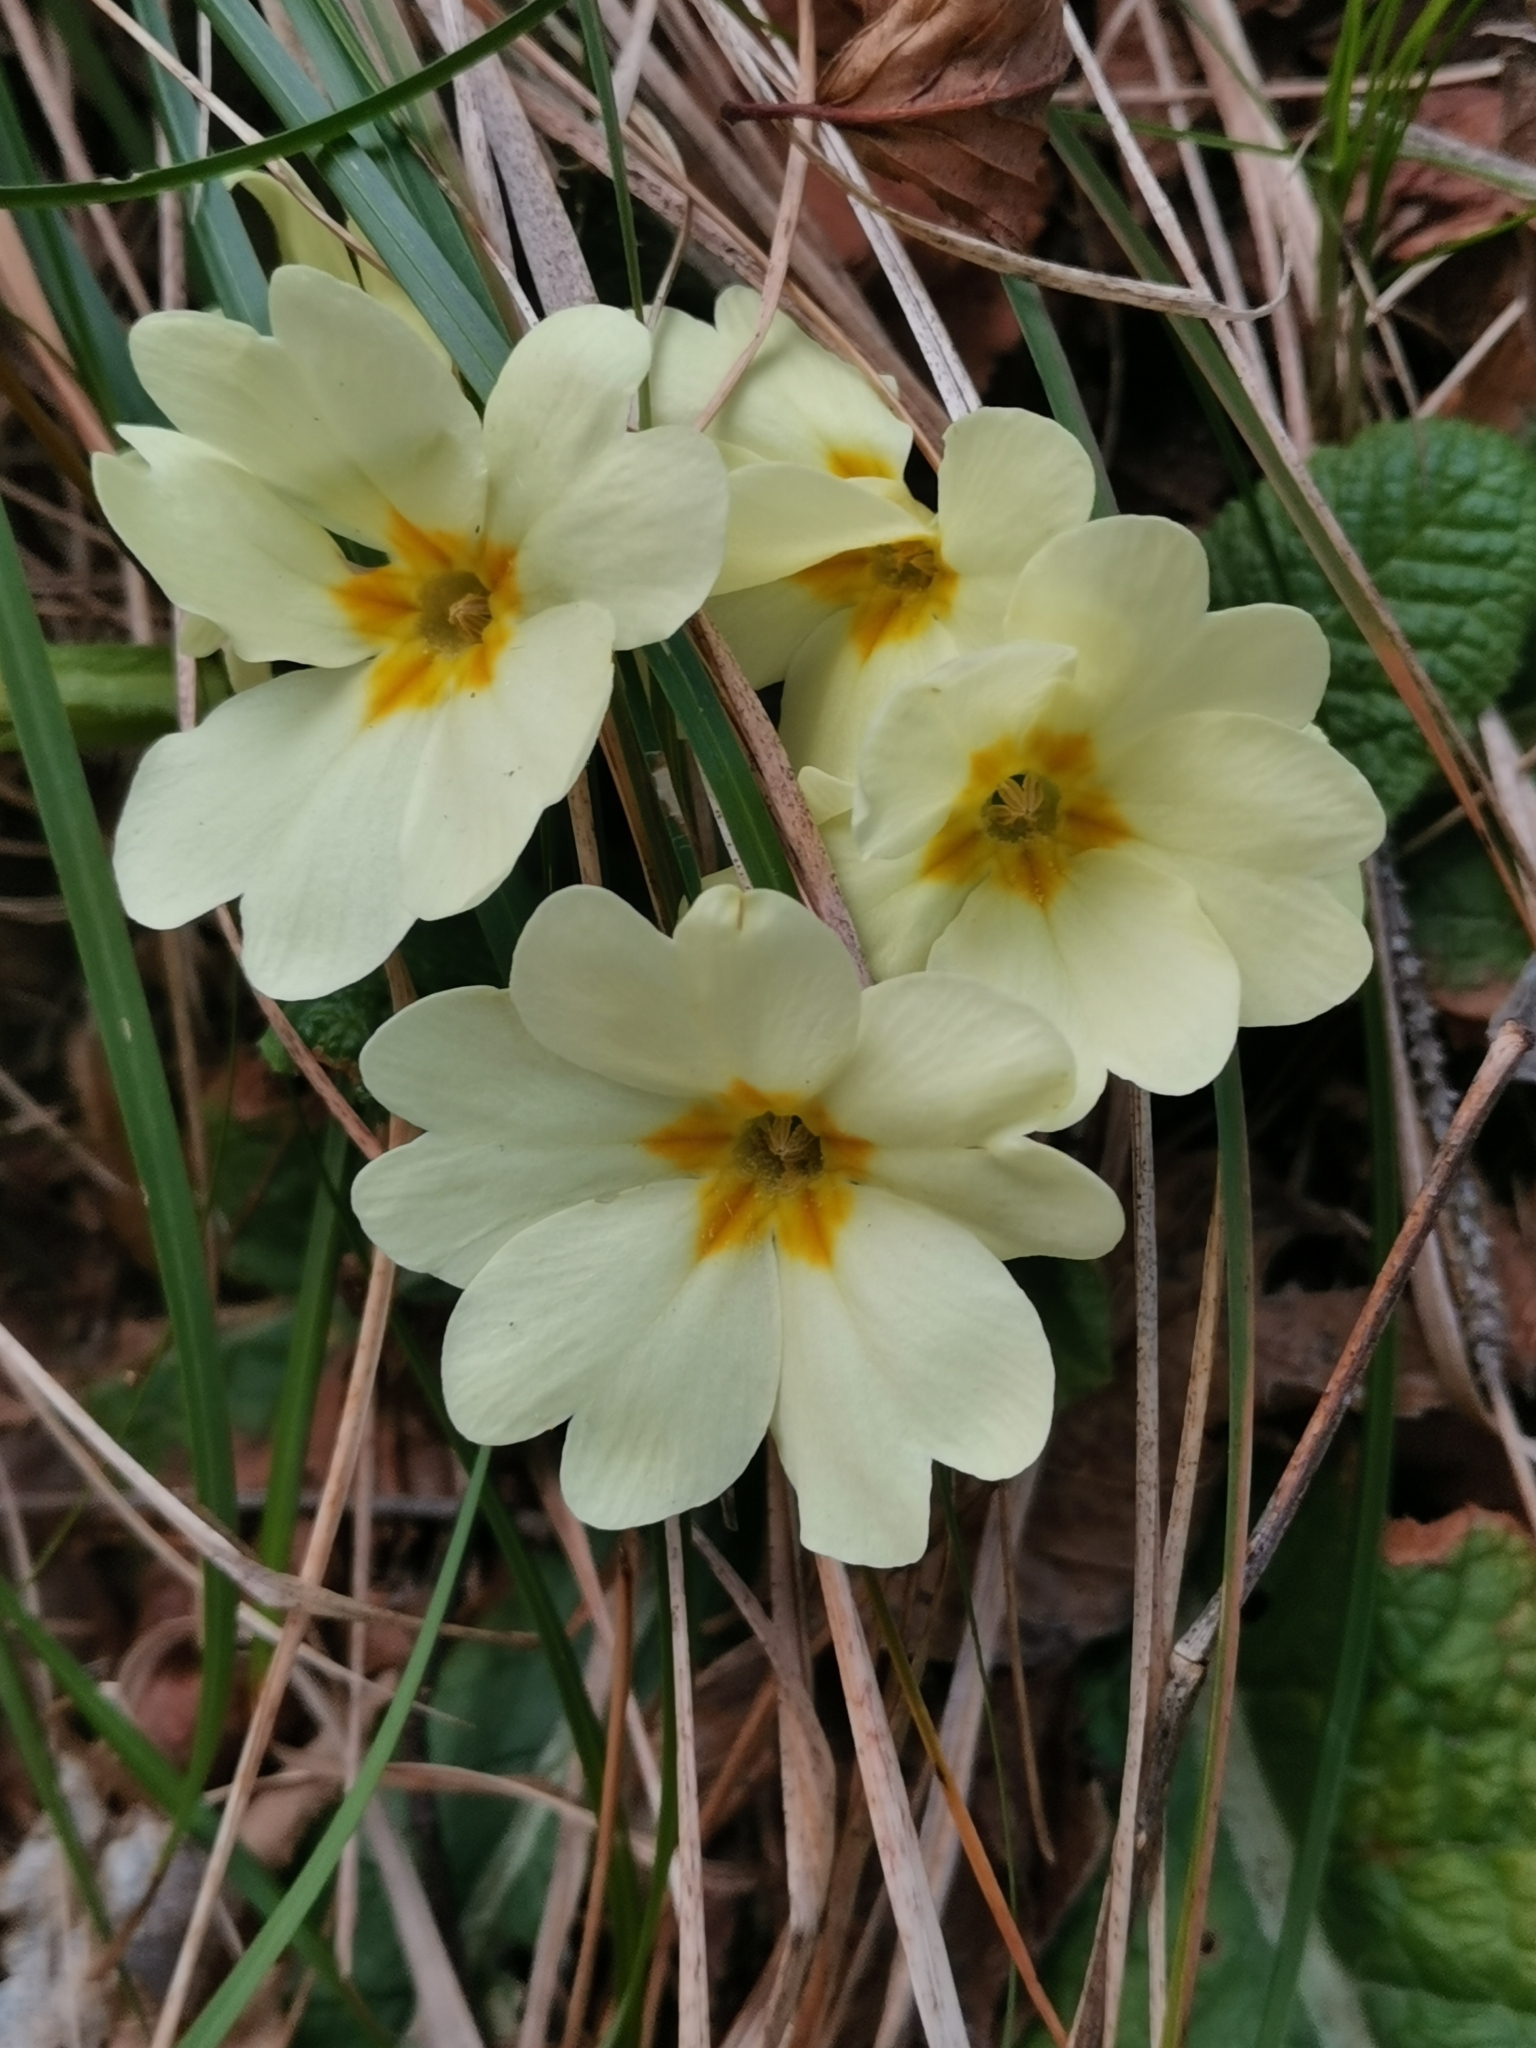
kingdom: Plantae
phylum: Tracheophyta
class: Magnoliopsida
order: Ericales
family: Primulaceae
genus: Primula
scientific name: Primula vulgaris
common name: Primrose
